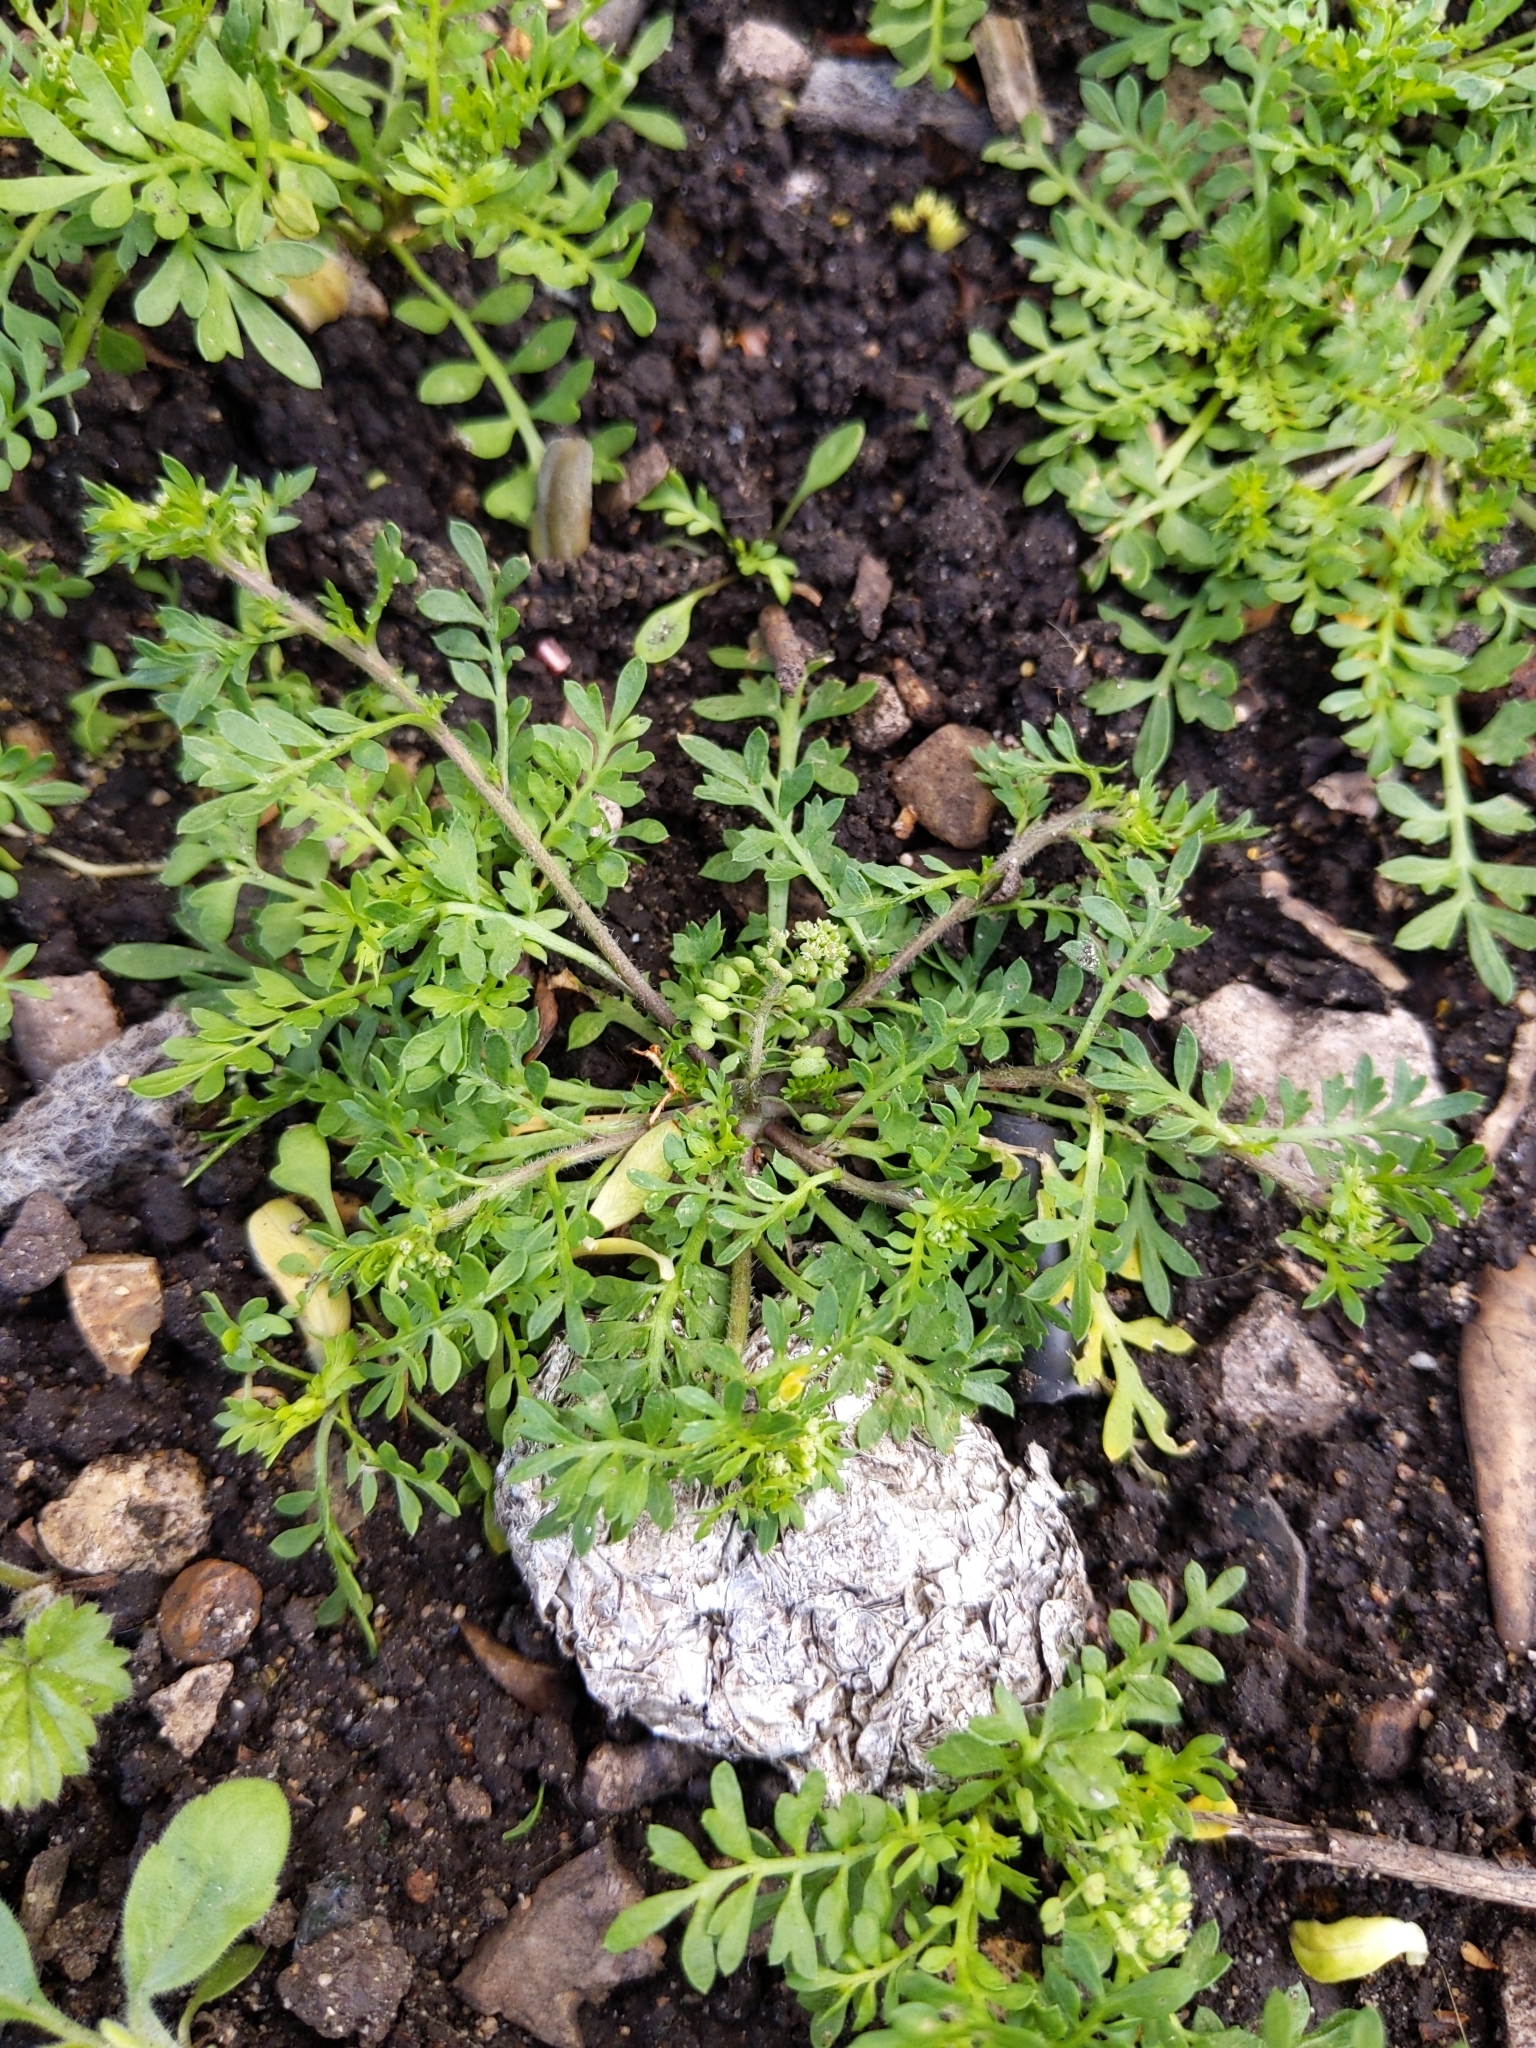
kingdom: Plantae
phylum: Tracheophyta
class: Magnoliopsida
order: Brassicales
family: Brassicaceae
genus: Lepidium
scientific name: Lepidium didymum
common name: Lesser swinecress
